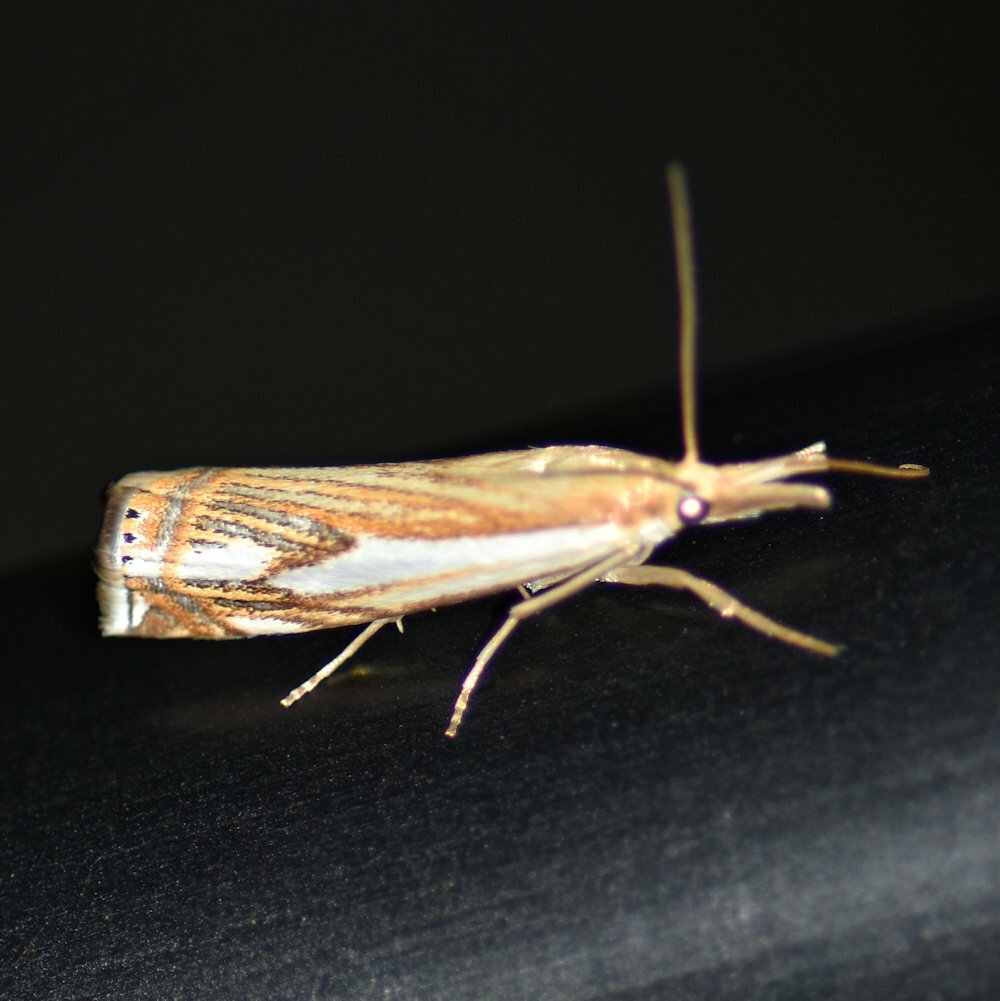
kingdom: Animalia
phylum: Arthropoda
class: Insecta
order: Lepidoptera
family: Crambidae
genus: Crambus
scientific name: Crambus agitatellus
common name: Double-banded grass-veneer
